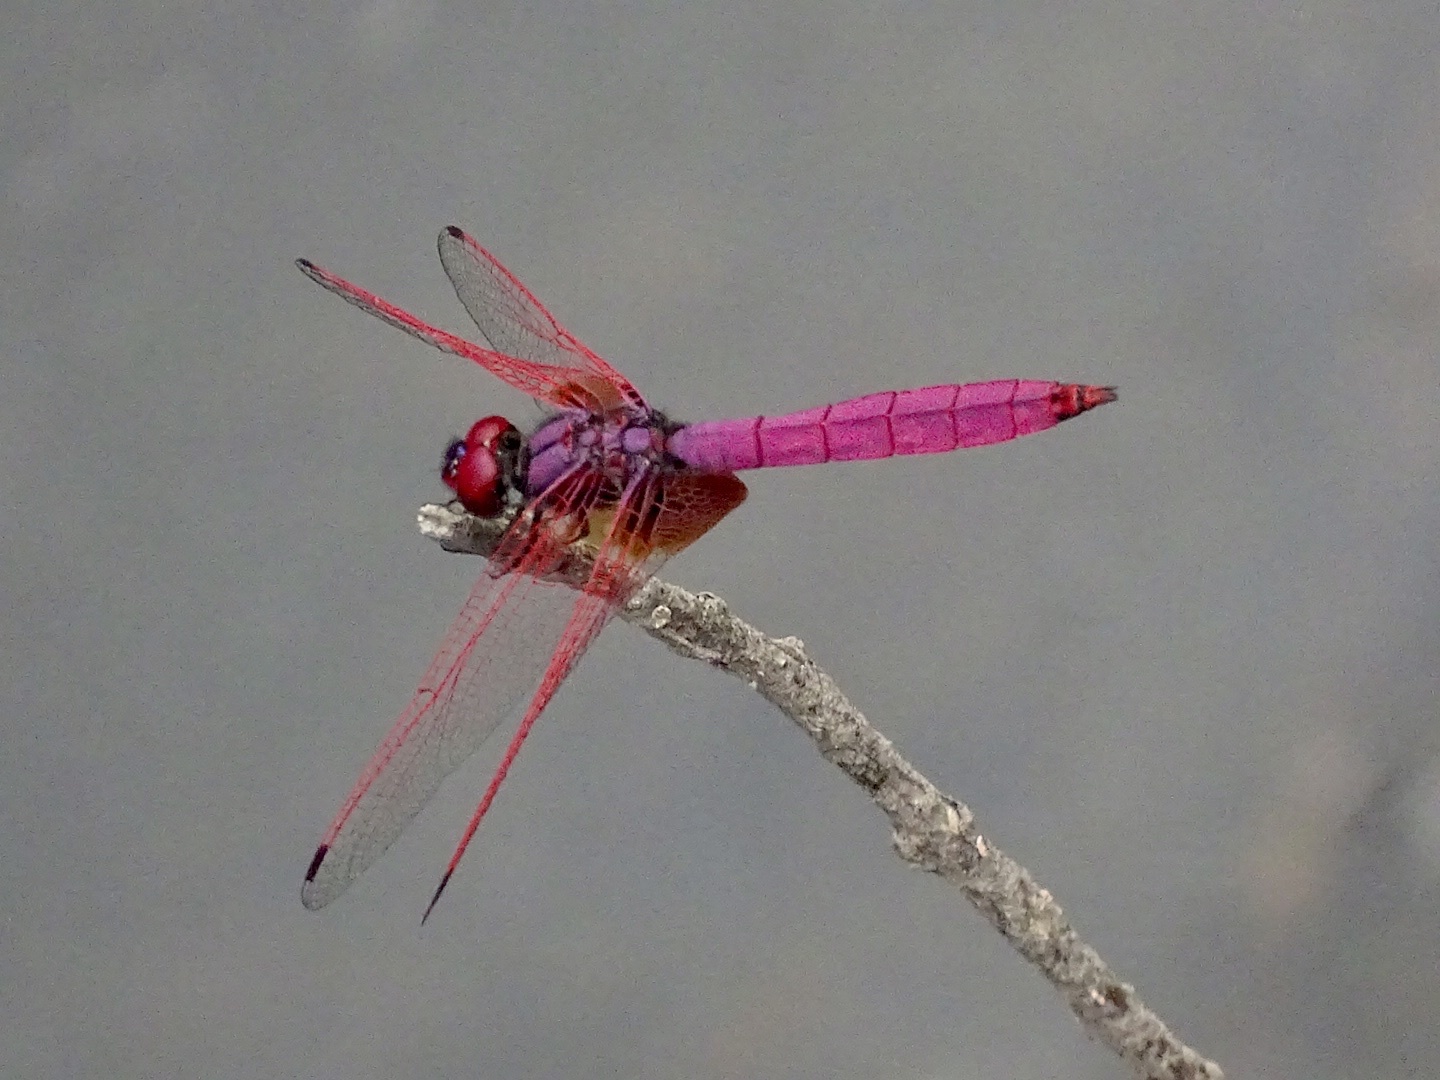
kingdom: Animalia
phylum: Arthropoda
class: Insecta
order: Odonata
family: Libellulidae
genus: Trithemis
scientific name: Trithemis aurora
